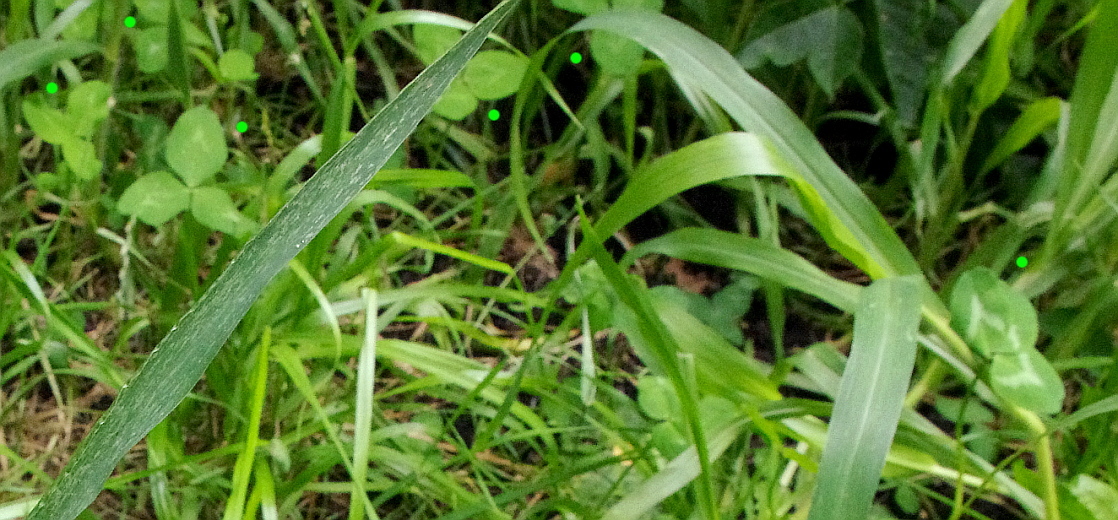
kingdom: Plantae
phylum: Tracheophyta
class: Magnoliopsida
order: Fabales
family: Fabaceae
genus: Trifolium
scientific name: Trifolium pratense
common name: Red clover
